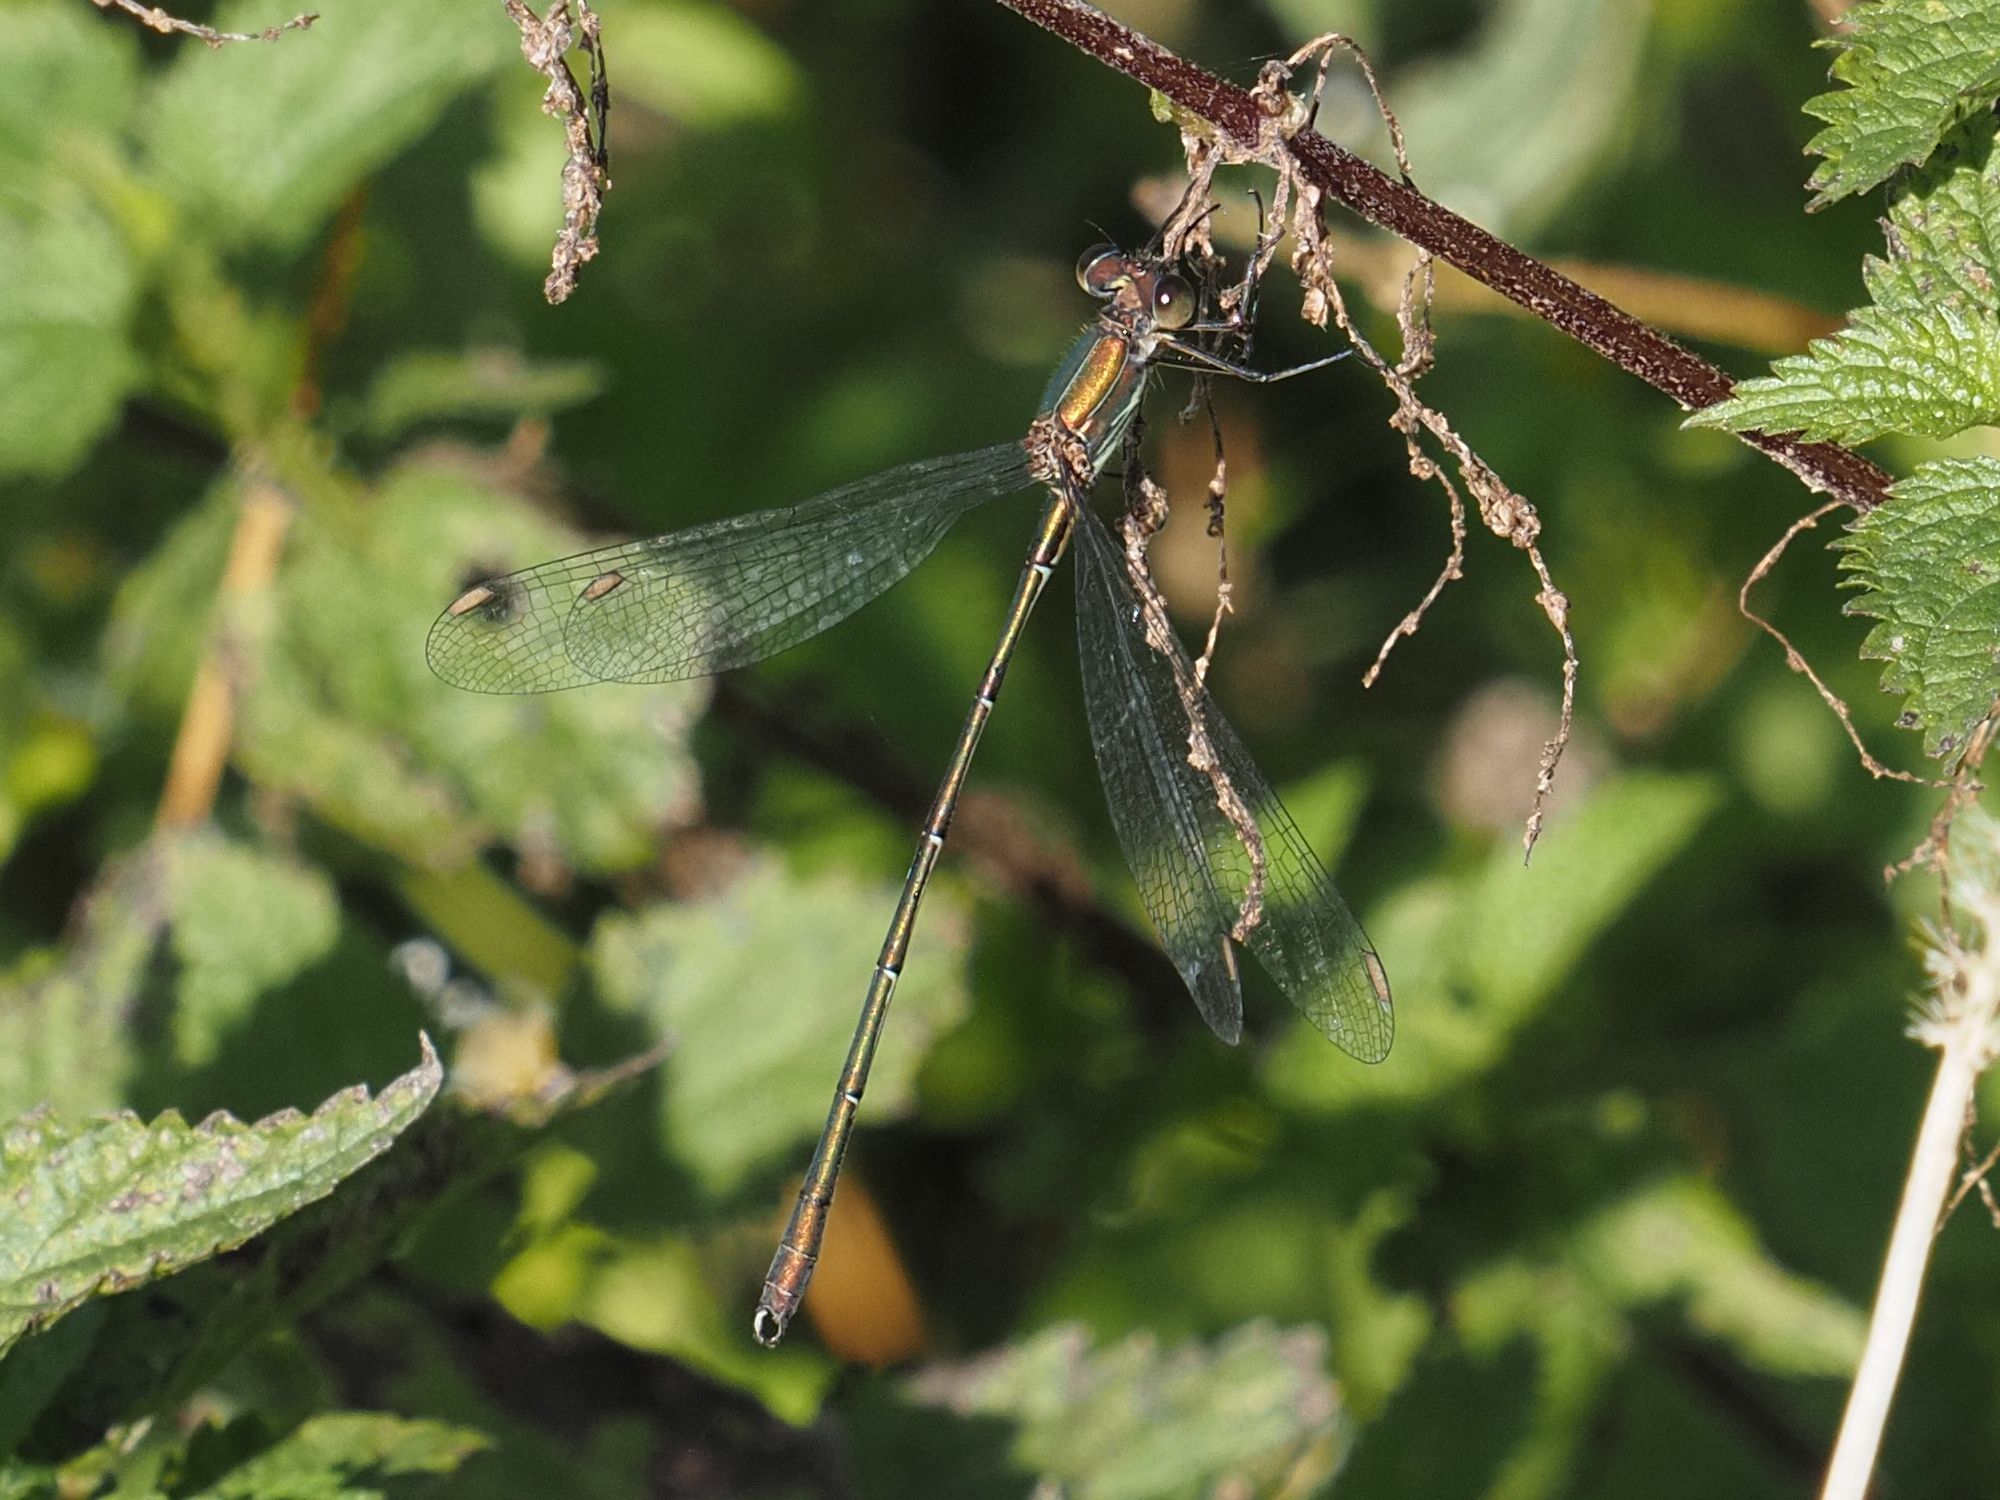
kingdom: Animalia
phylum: Arthropoda
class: Insecta
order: Odonata
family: Lestidae
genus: Chalcolestes
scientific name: Chalcolestes viridis
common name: Green emerald damselfly
